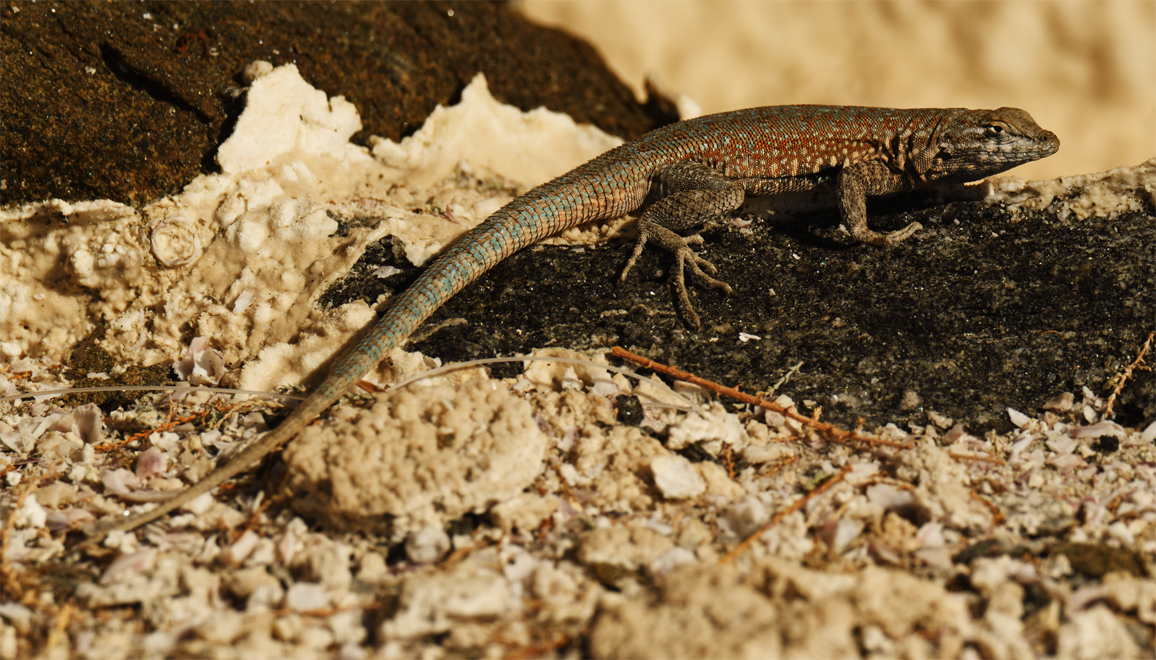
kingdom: Animalia
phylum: Chordata
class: Squamata
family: Phrynosomatidae
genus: Uta
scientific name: Uta stansburiana
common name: Side-blotched lizard
